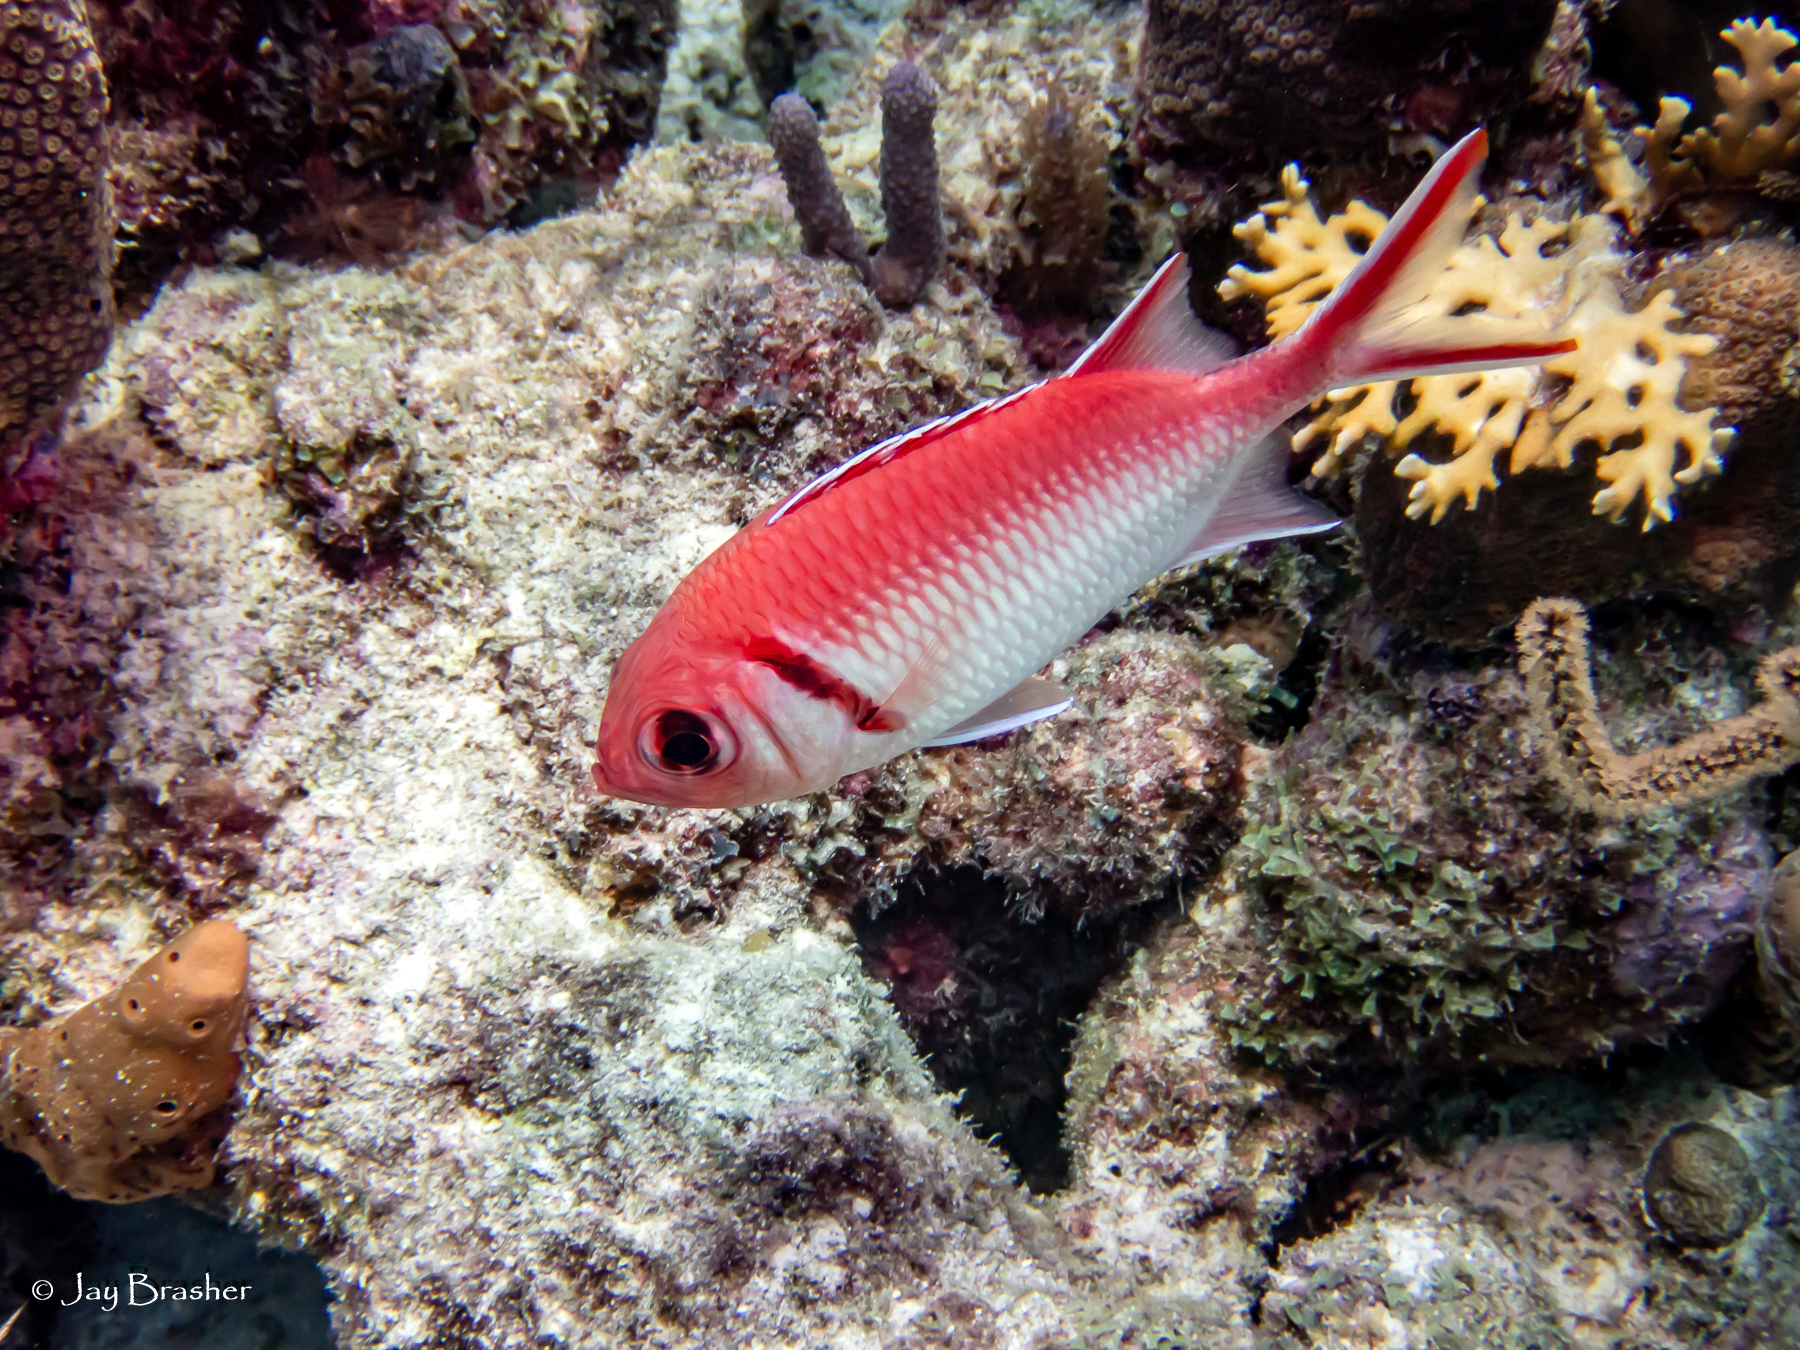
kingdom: Animalia
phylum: Chordata
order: Beryciformes
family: Holocentridae
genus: Myripristis
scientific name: Myripristis jacobus
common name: Blackbar soldierfish
